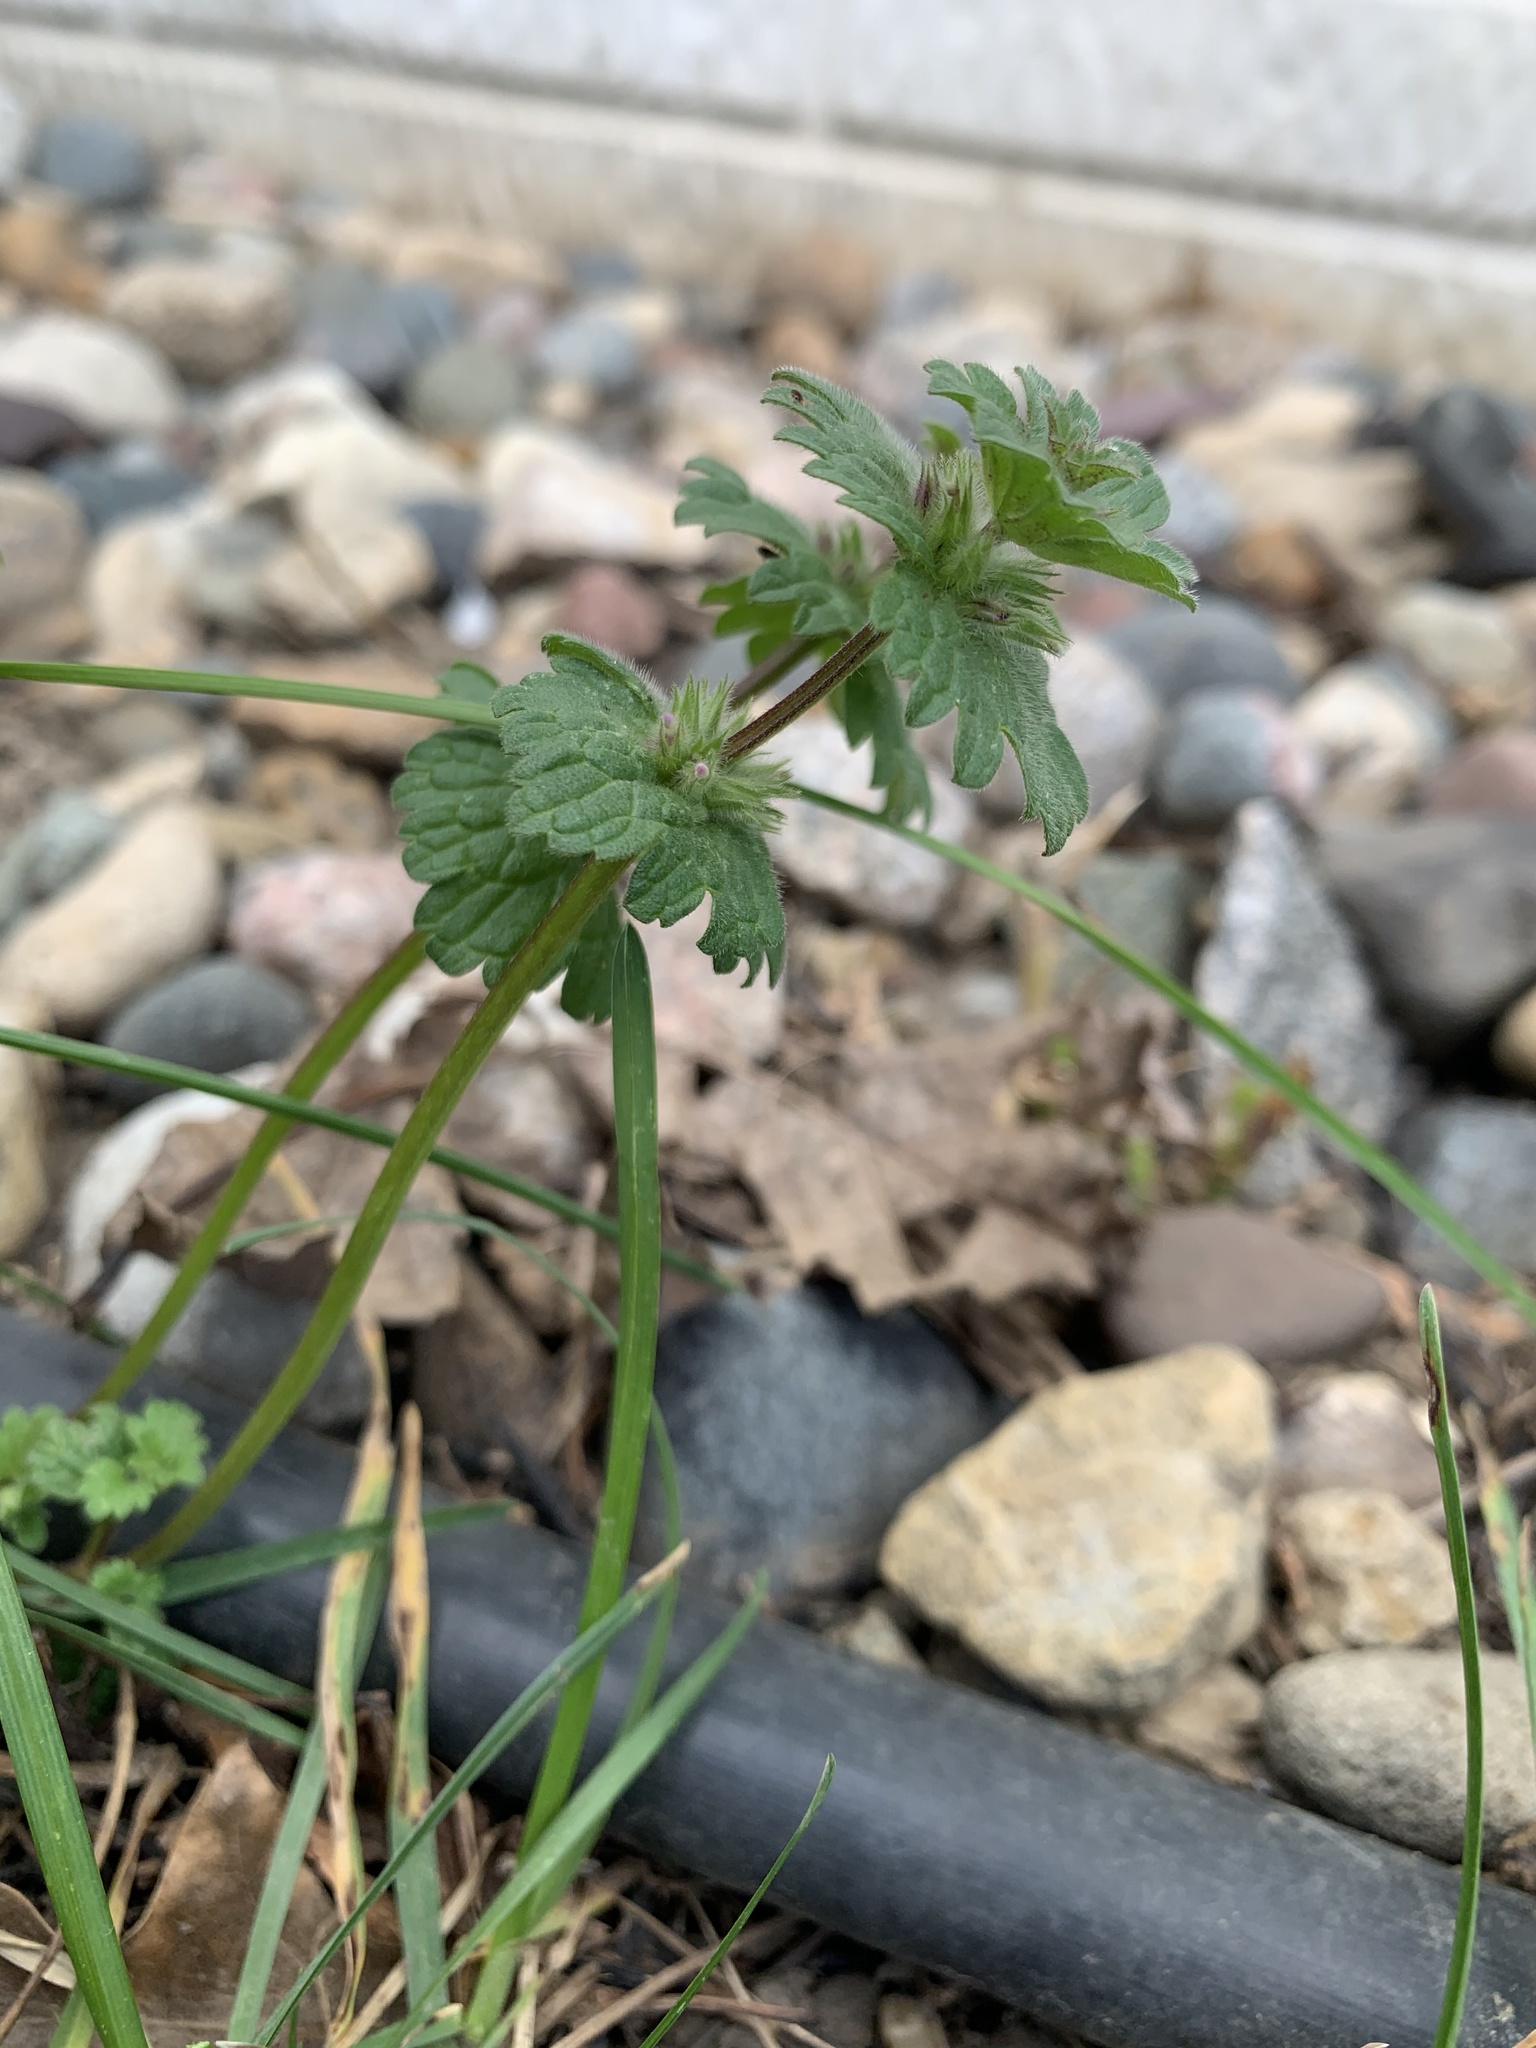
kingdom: Plantae
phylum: Tracheophyta
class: Magnoliopsida
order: Lamiales
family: Lamiaceae
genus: Lamium
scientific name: Lamium amplexicaule
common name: Henbit dead-nettle
